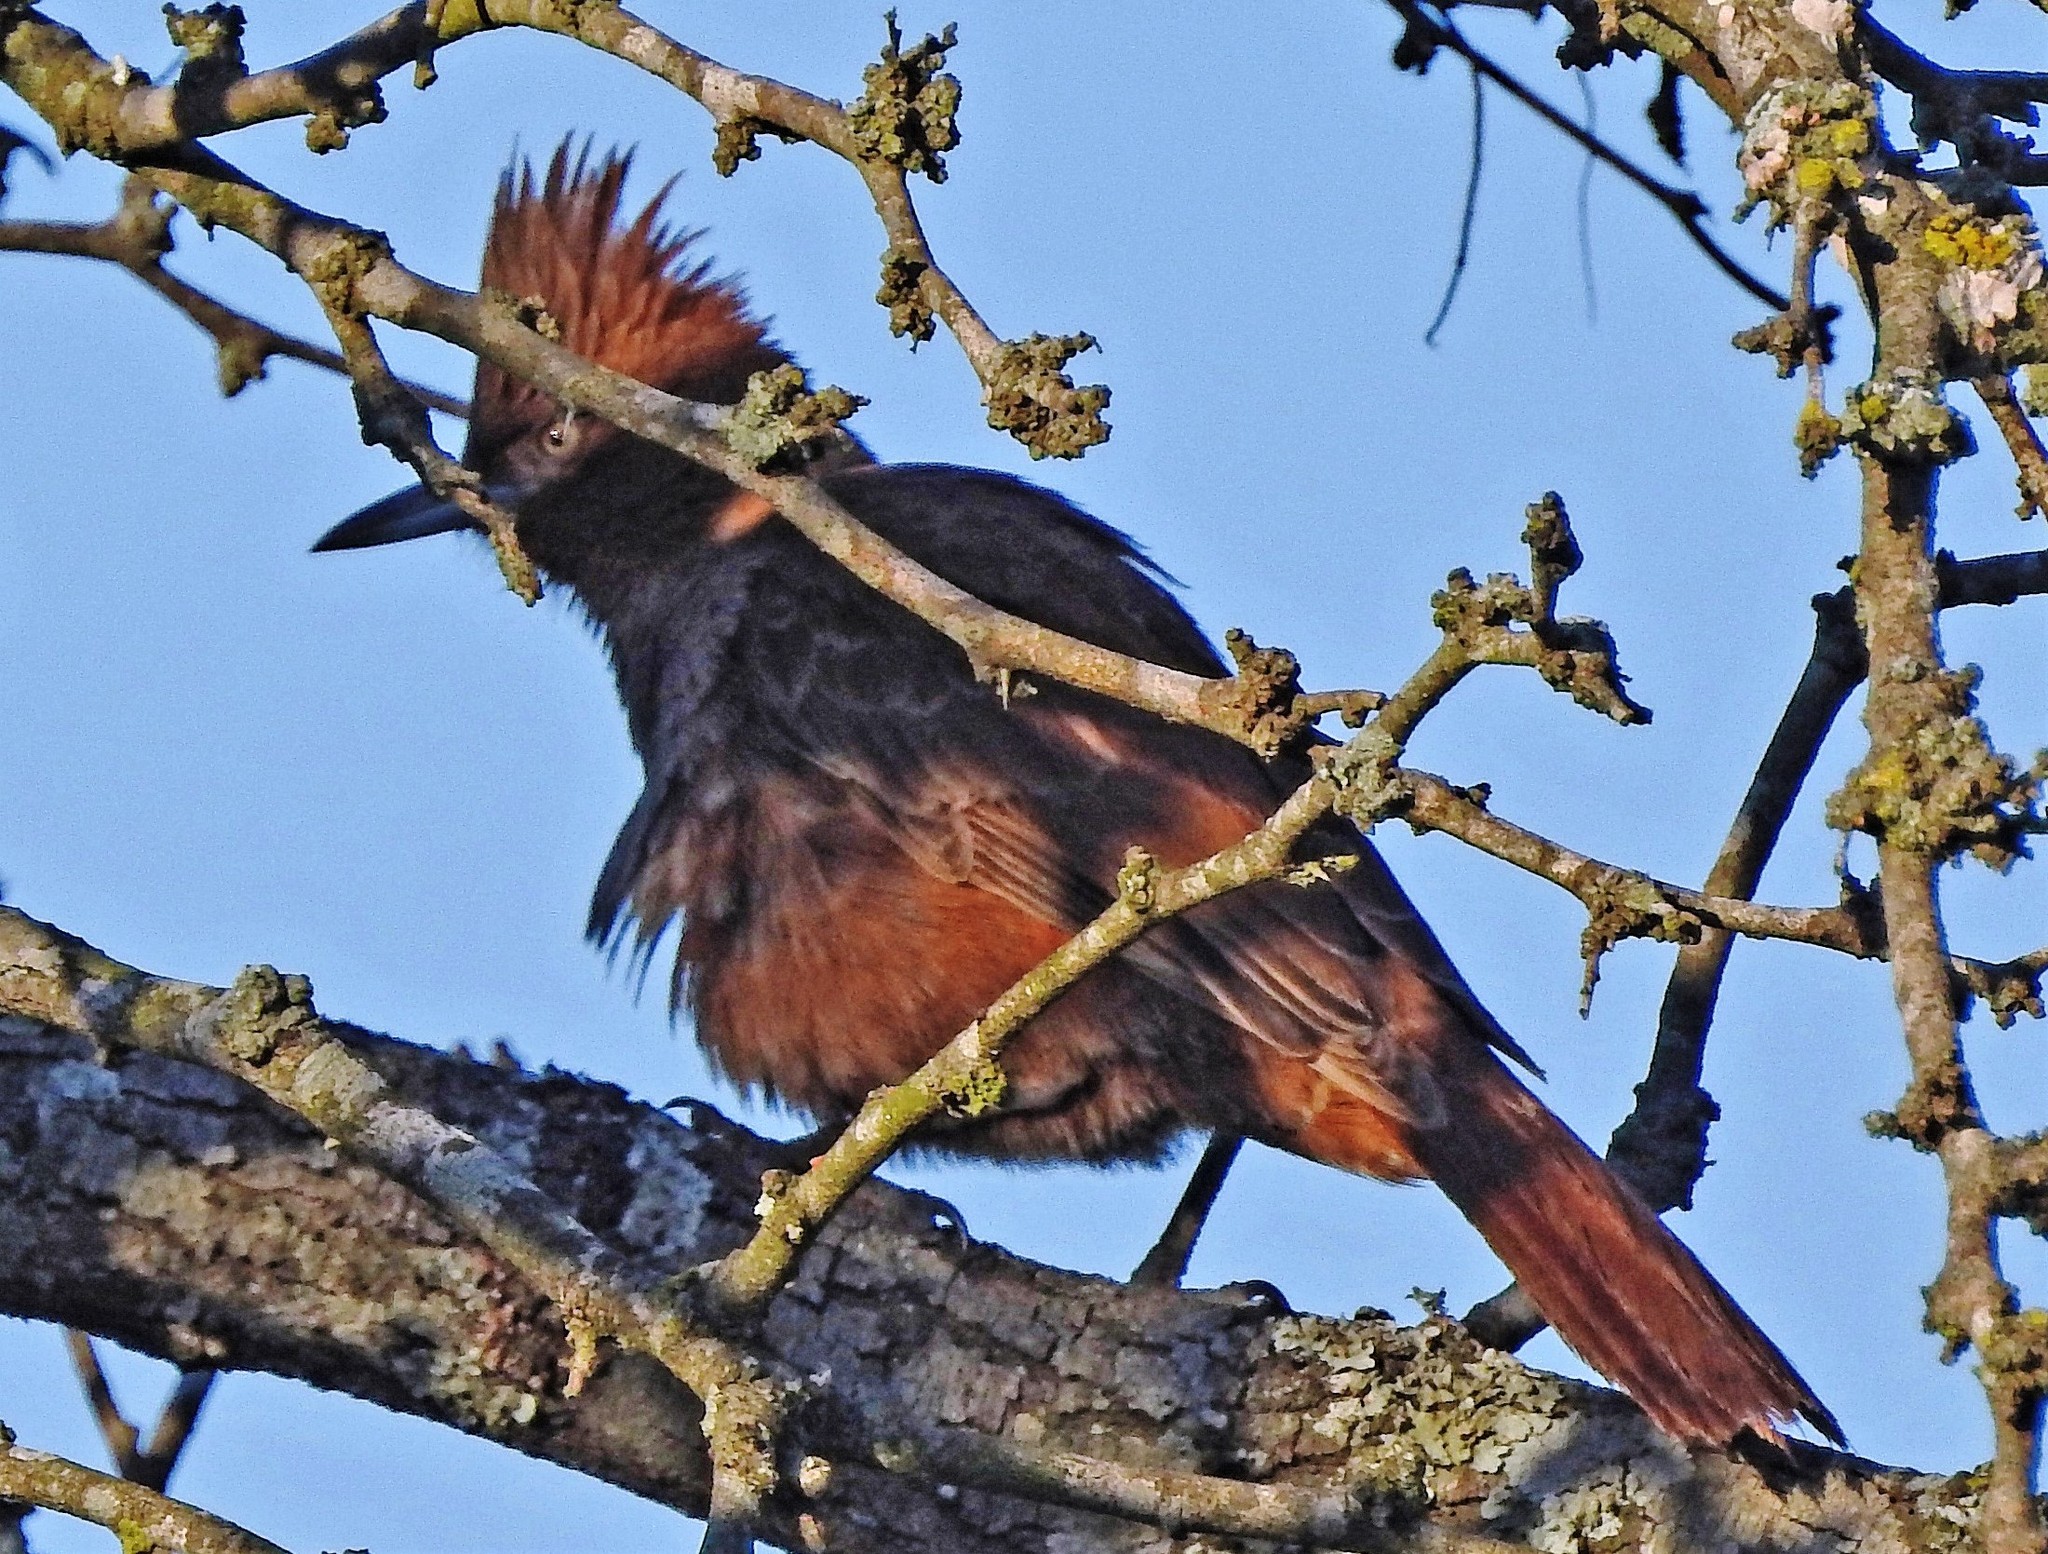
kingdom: Animalia
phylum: Chordata
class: Aves
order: Passeriformes
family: Furnariidae
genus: Pseudoseisura
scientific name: Pseudoseisura lophotes
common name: Brown cacholote
